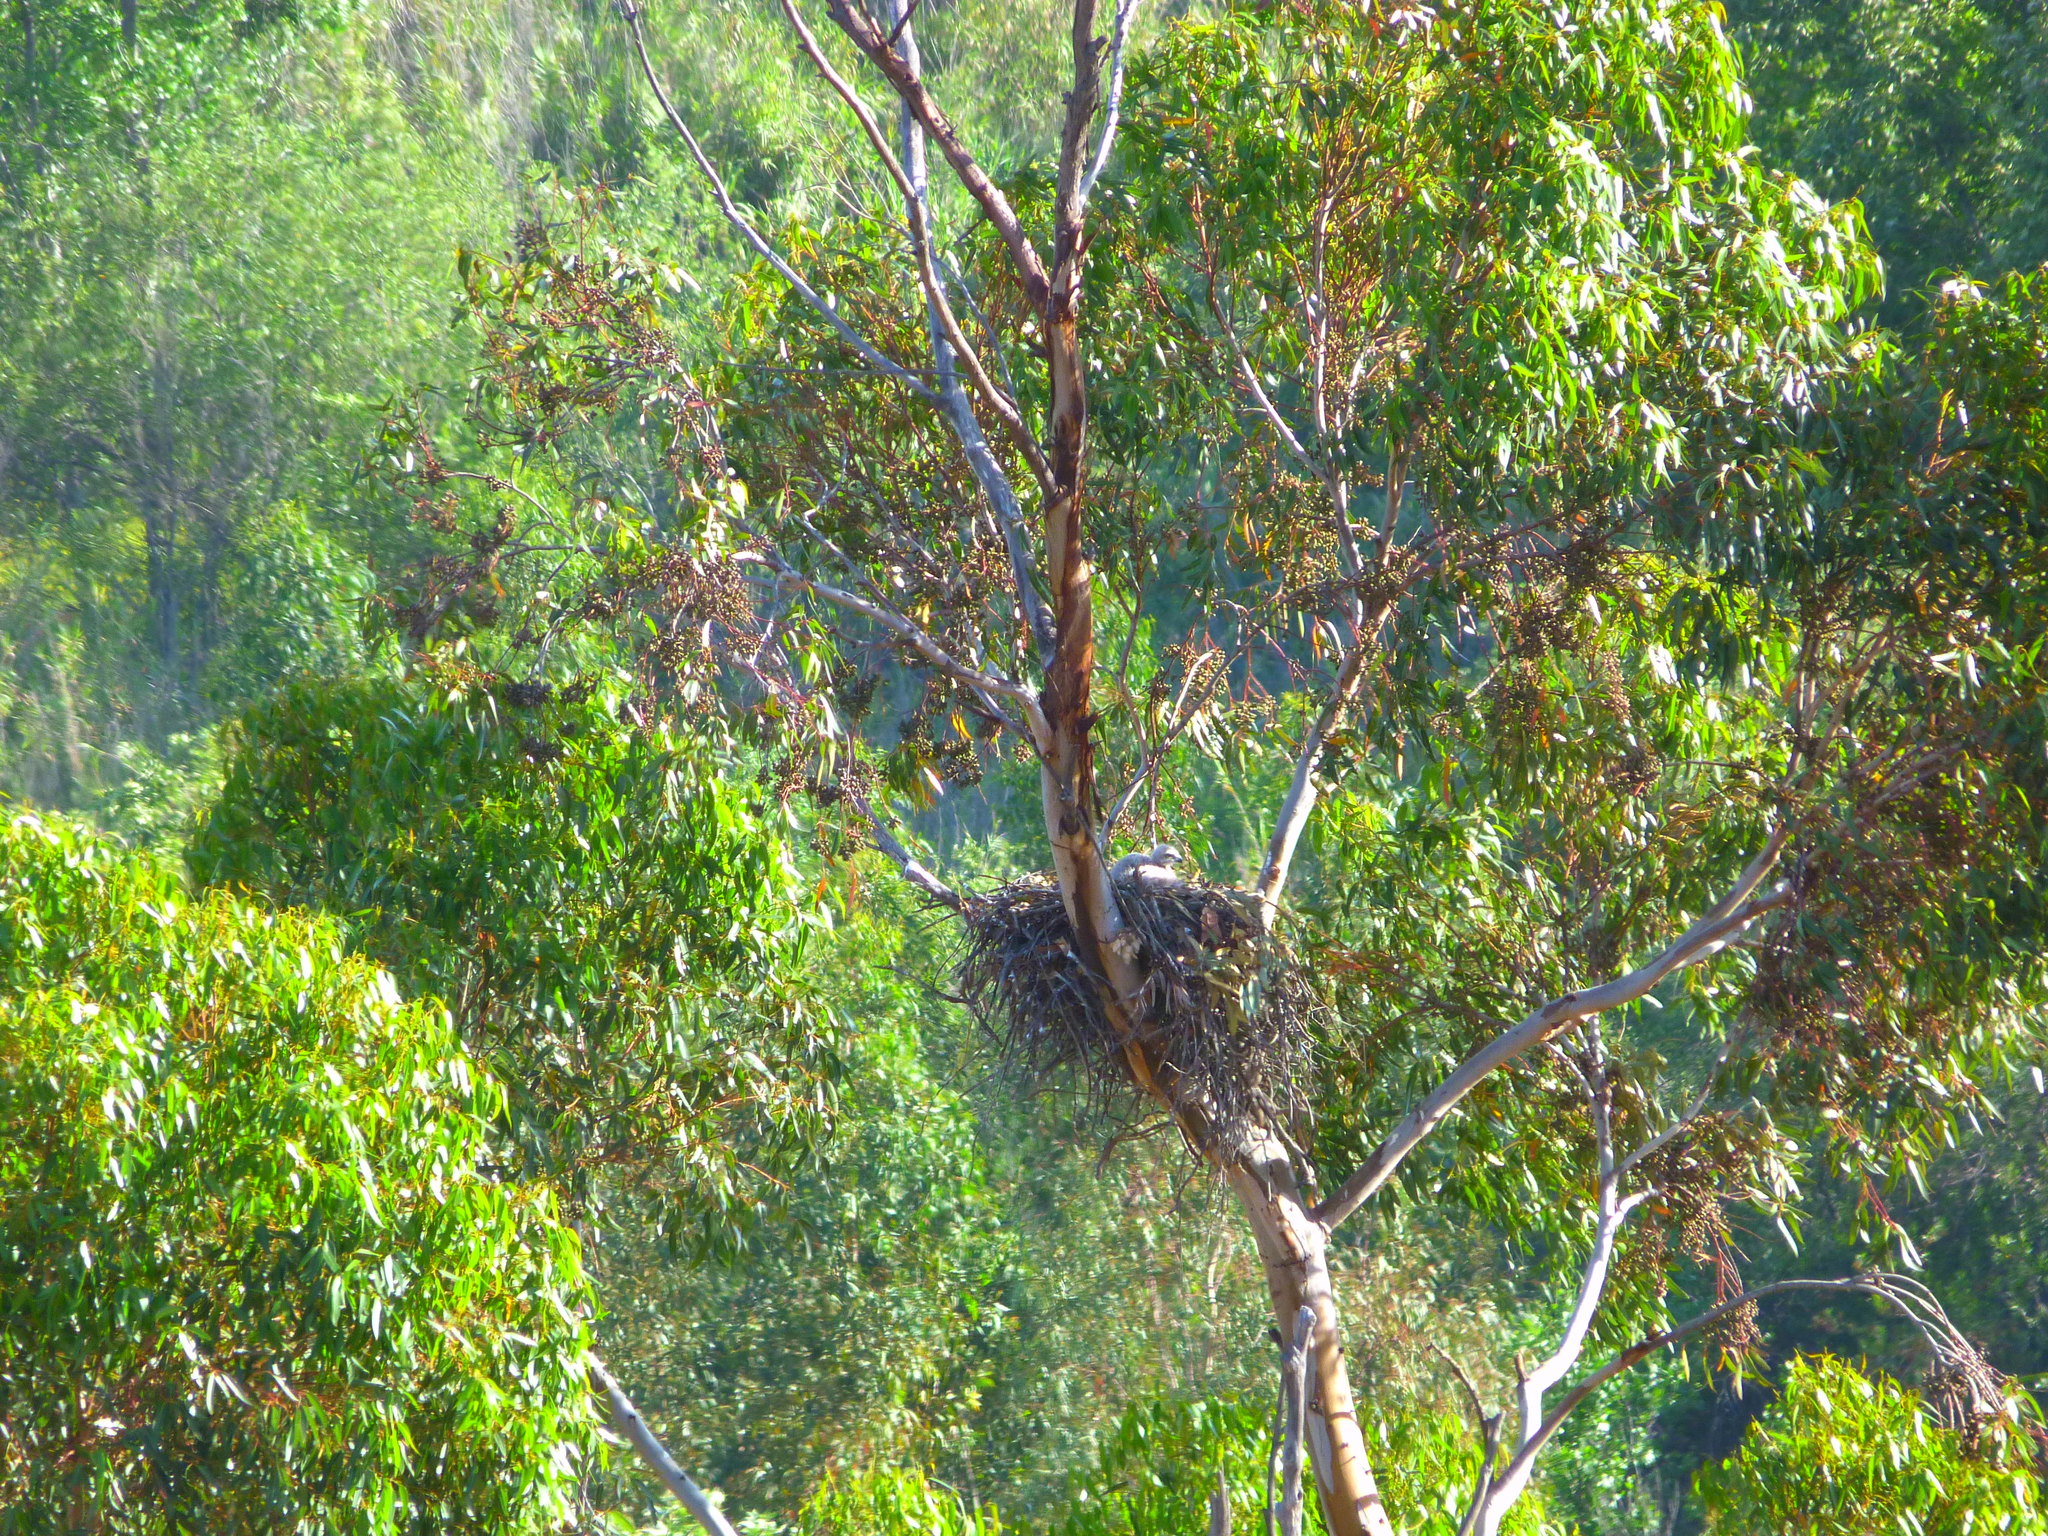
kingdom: Animalia
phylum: Chordata
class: Aves
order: Accipitriformes
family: Accipitridae
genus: Buteo
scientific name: Buteo jamaicensis
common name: Red-tailed hawk
